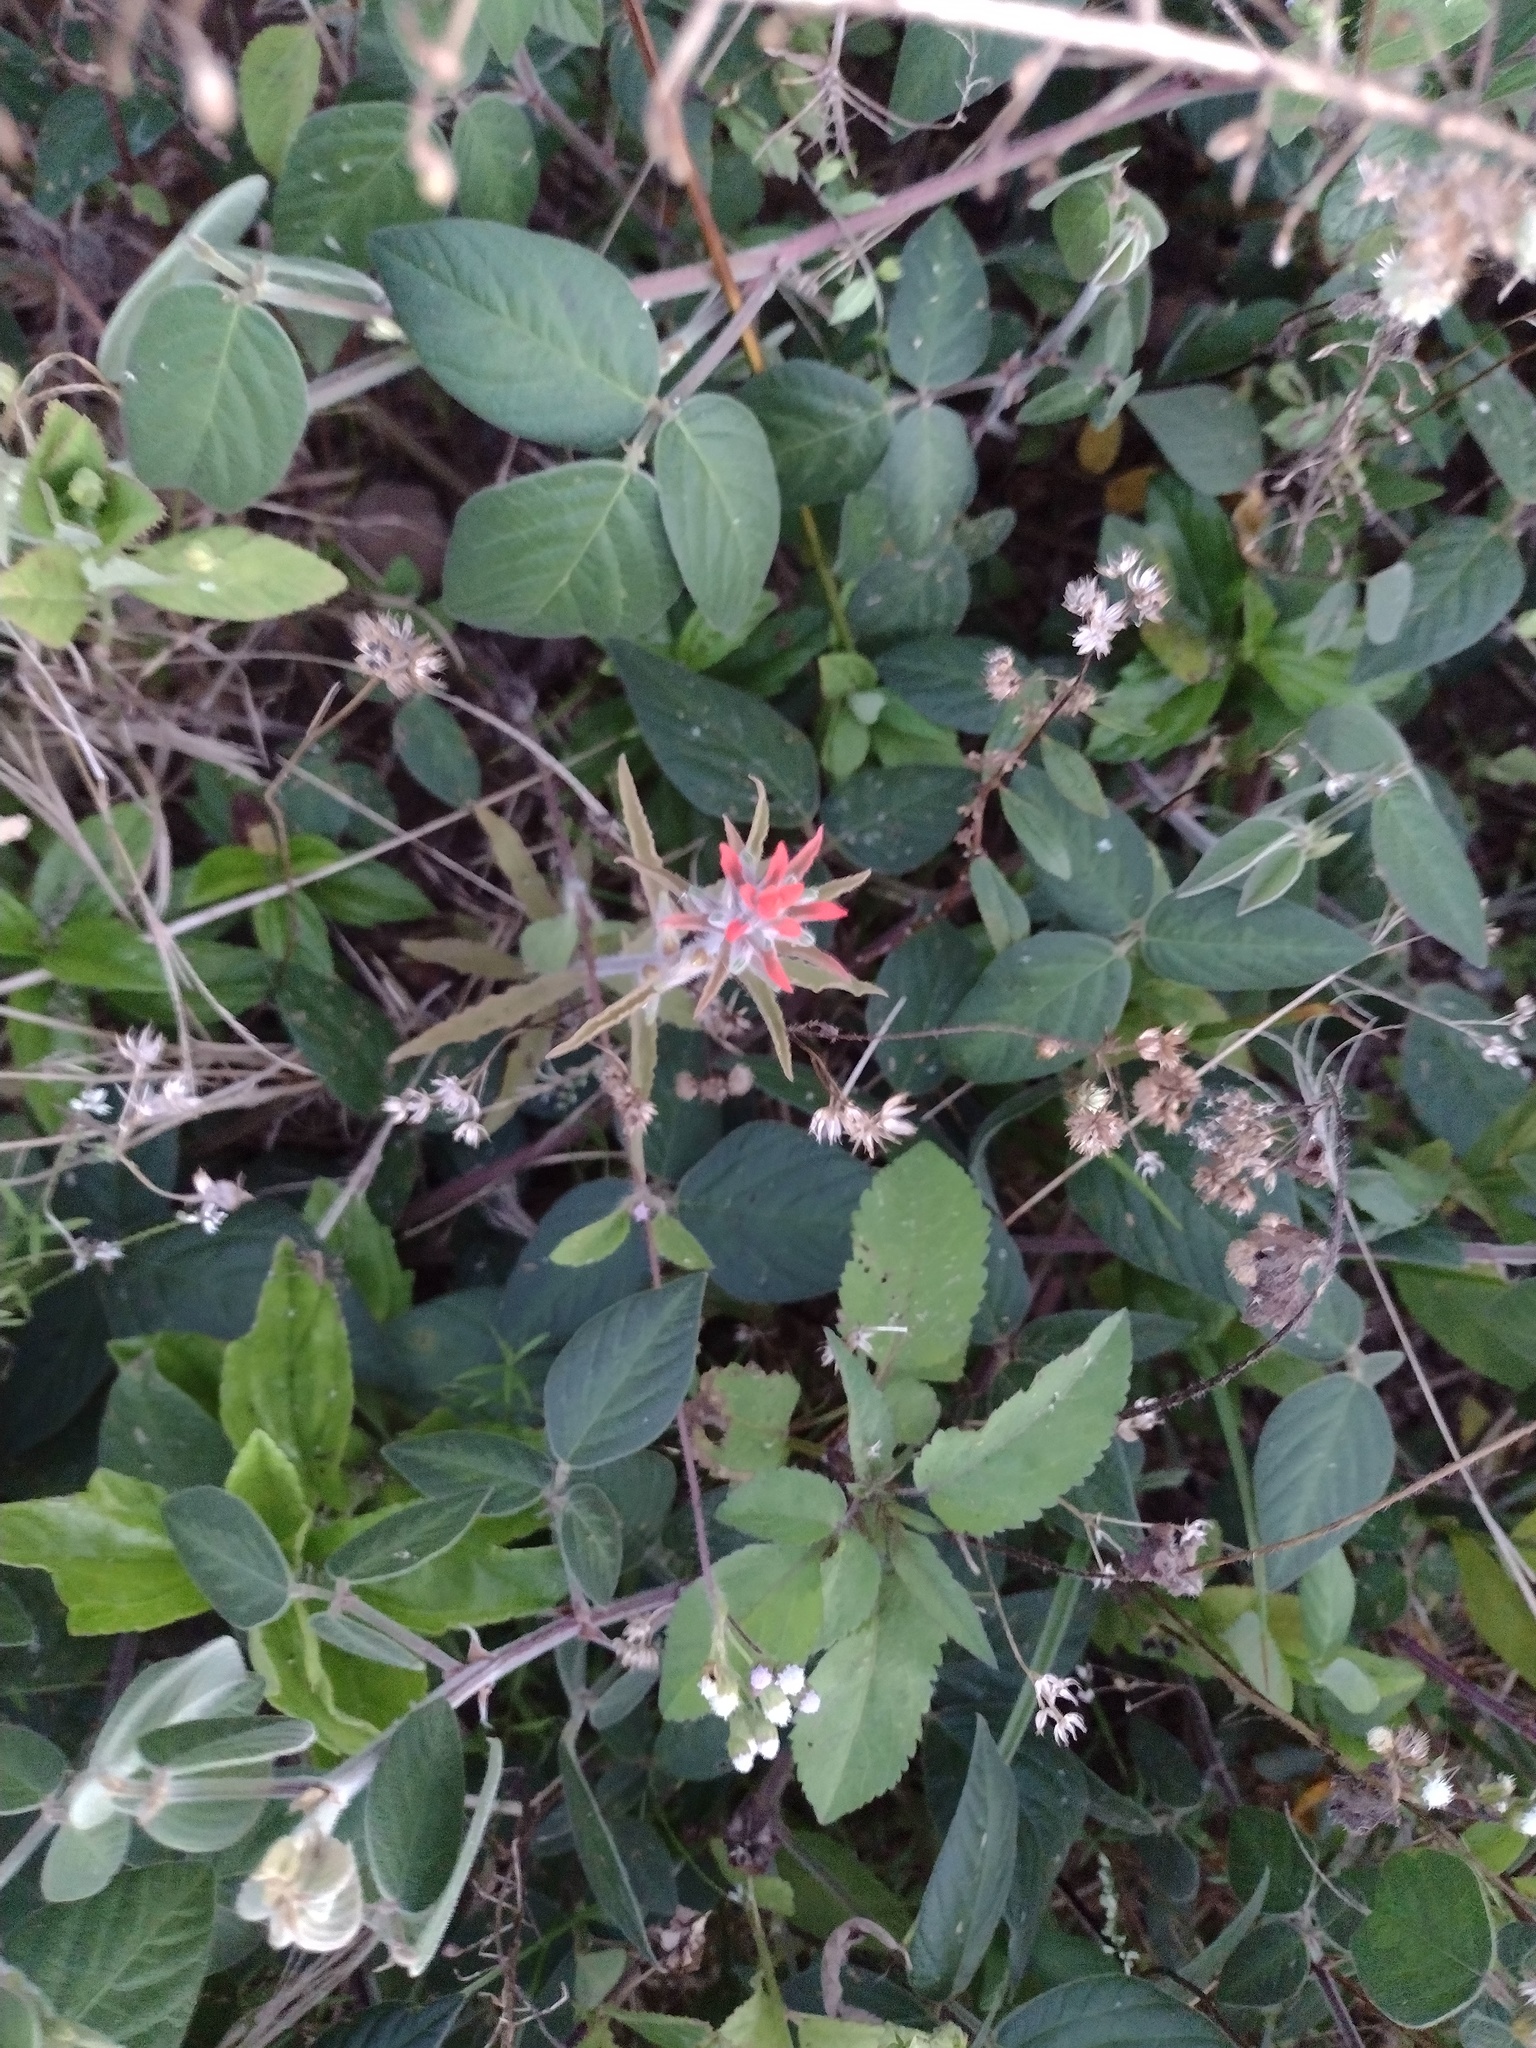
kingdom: Plantae
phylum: Tracheophyta
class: Magnoliopsida
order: Lamiales
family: Orobanchaceae
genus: Castilleja
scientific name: Castilleja arvensis
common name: Indian paintbrush
